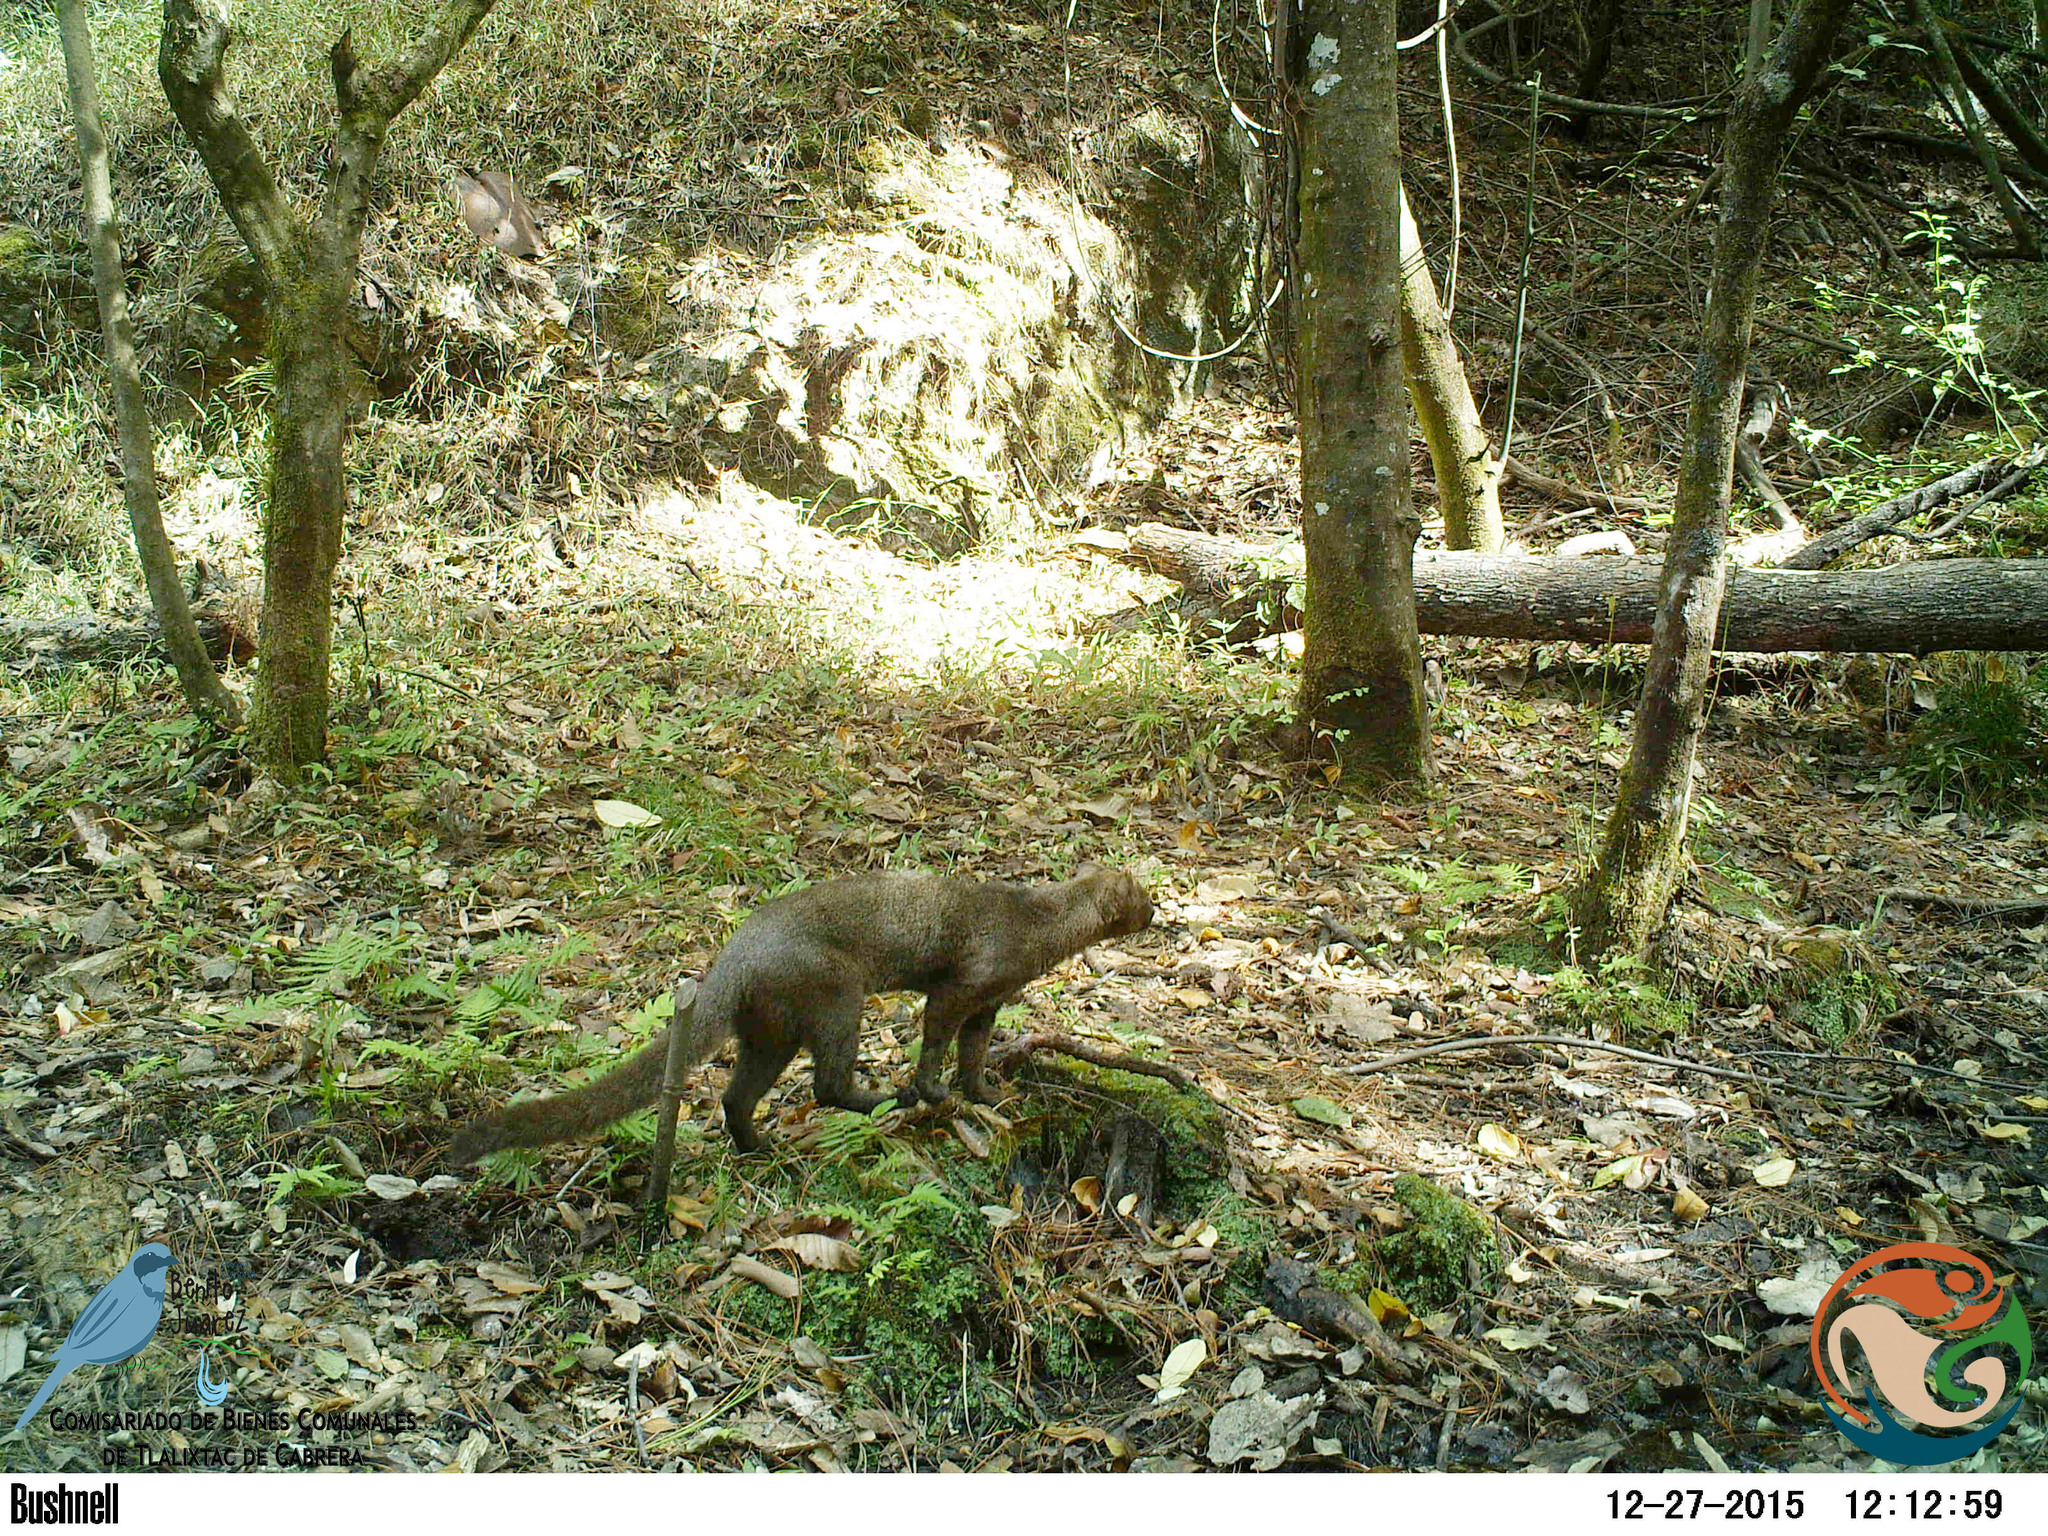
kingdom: Animalia
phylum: Chordata
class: Mammalia
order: Carnivora
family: Felidae
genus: Puma
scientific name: Puma yagouaroundi
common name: Jaguarundi
